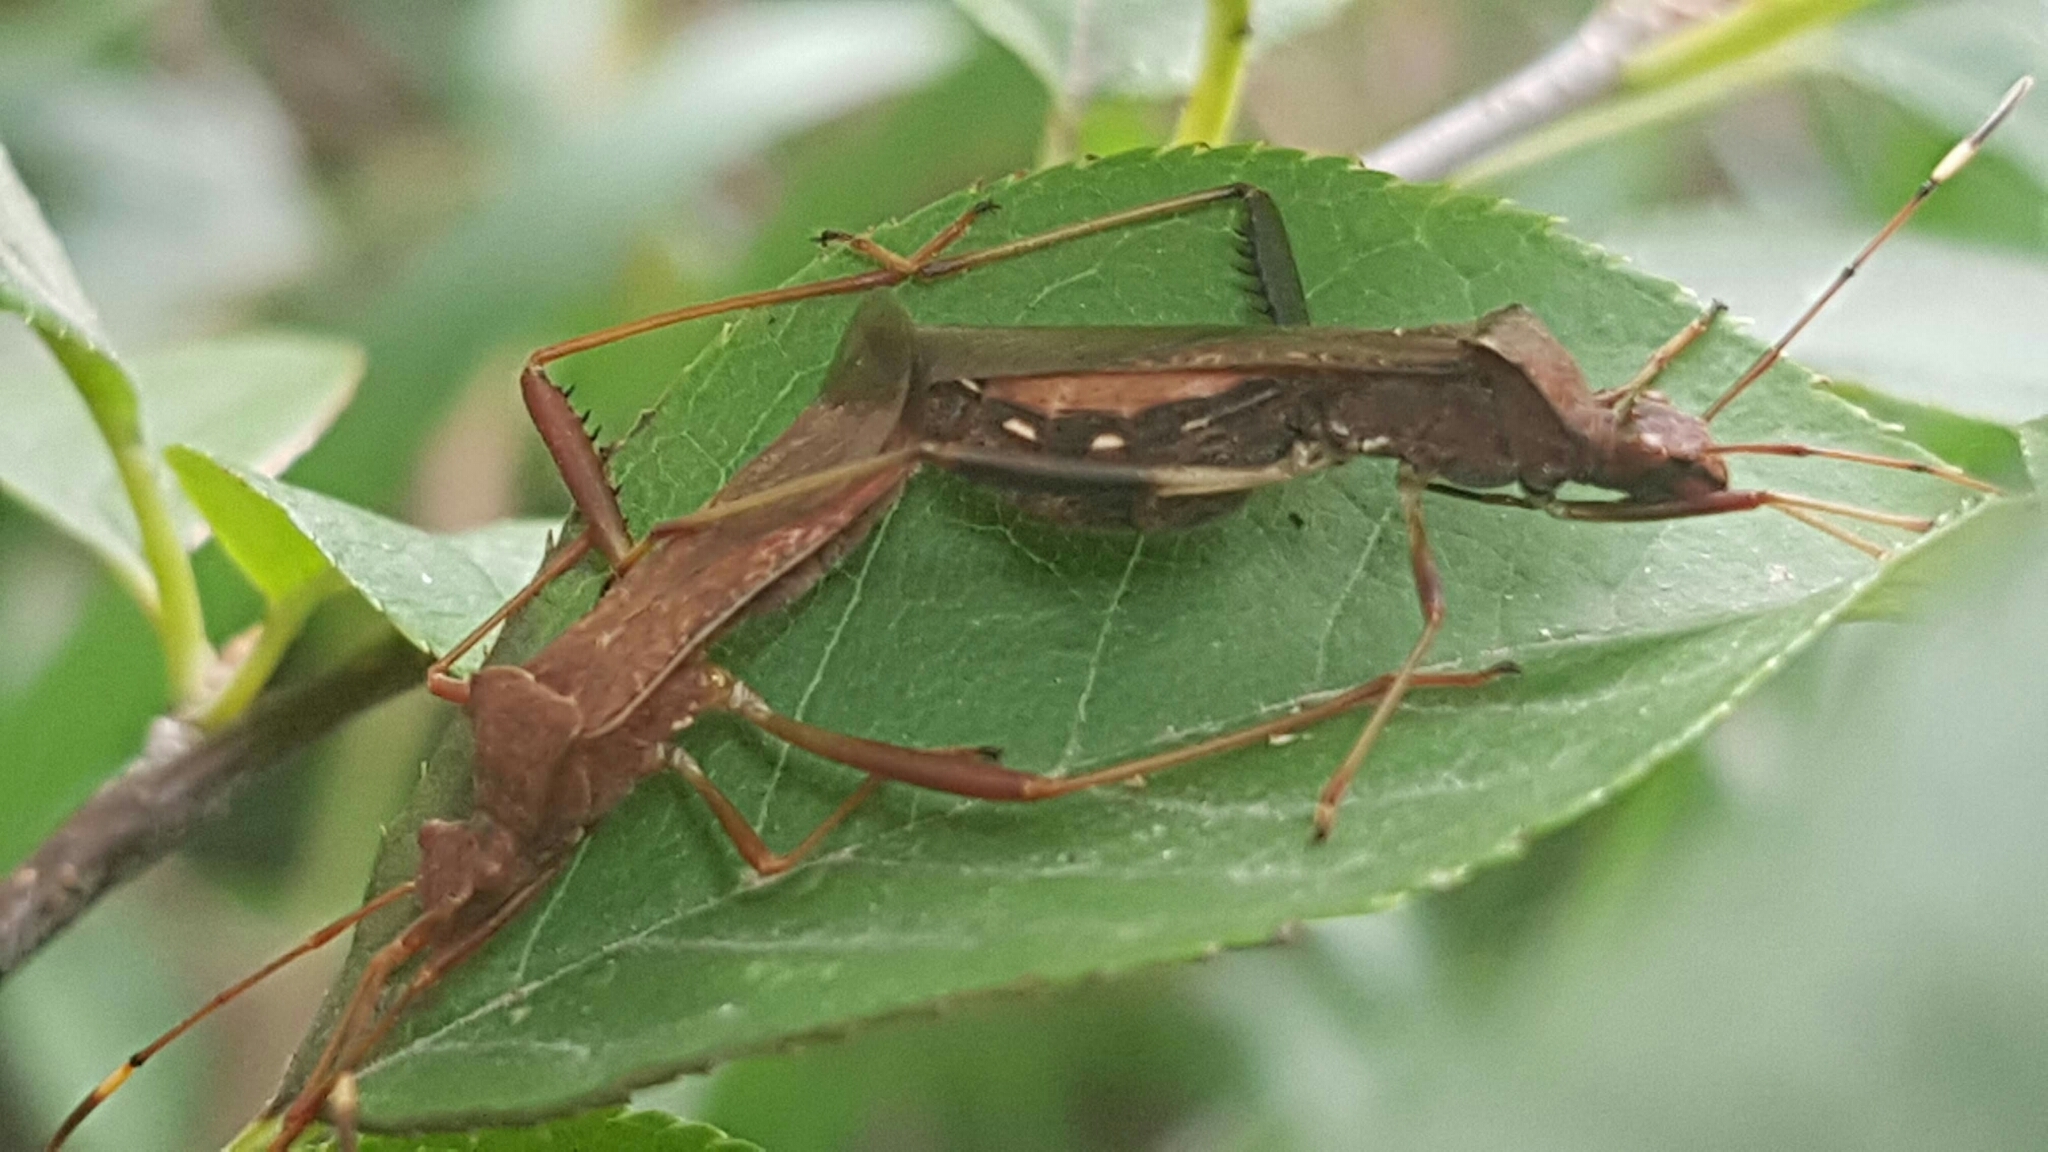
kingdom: Animalia
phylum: Arthropoda
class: Insecta
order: Hemiptera
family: Alydidae
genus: Megalotomus
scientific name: Megalotomus quinquespinosus
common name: Lupine bug
